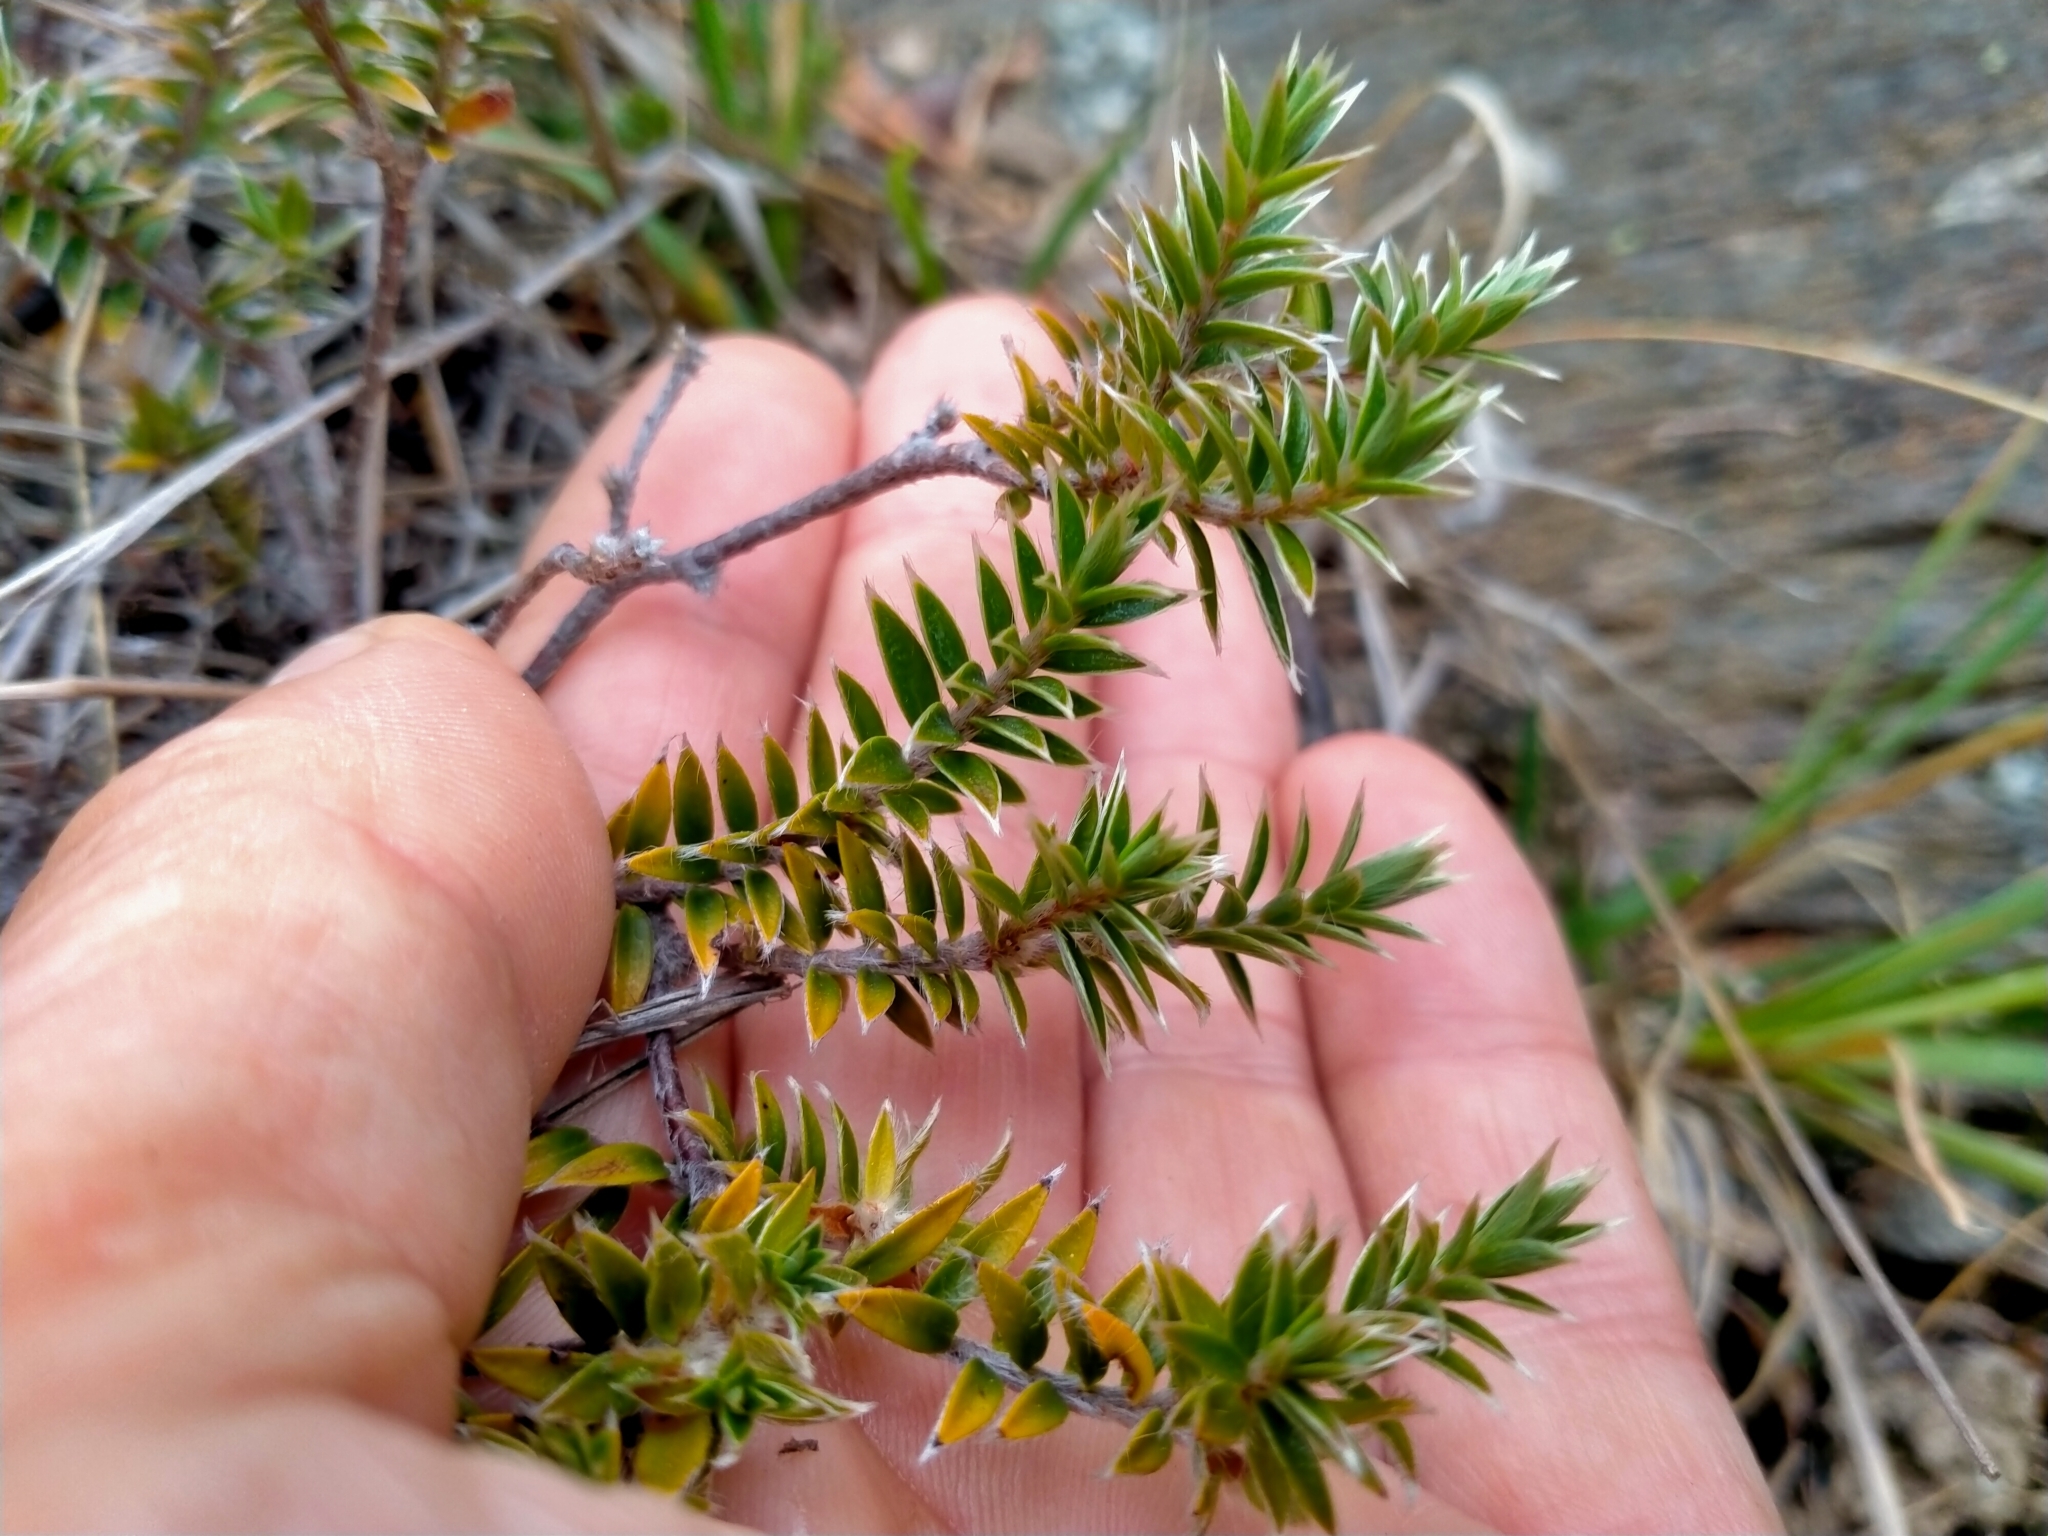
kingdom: Plantae
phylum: Tracheophyta
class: Magnoliopsida
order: Malvales
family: Thymelaeaceae
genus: Pimelea
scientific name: Pimelea pseudolyallii
